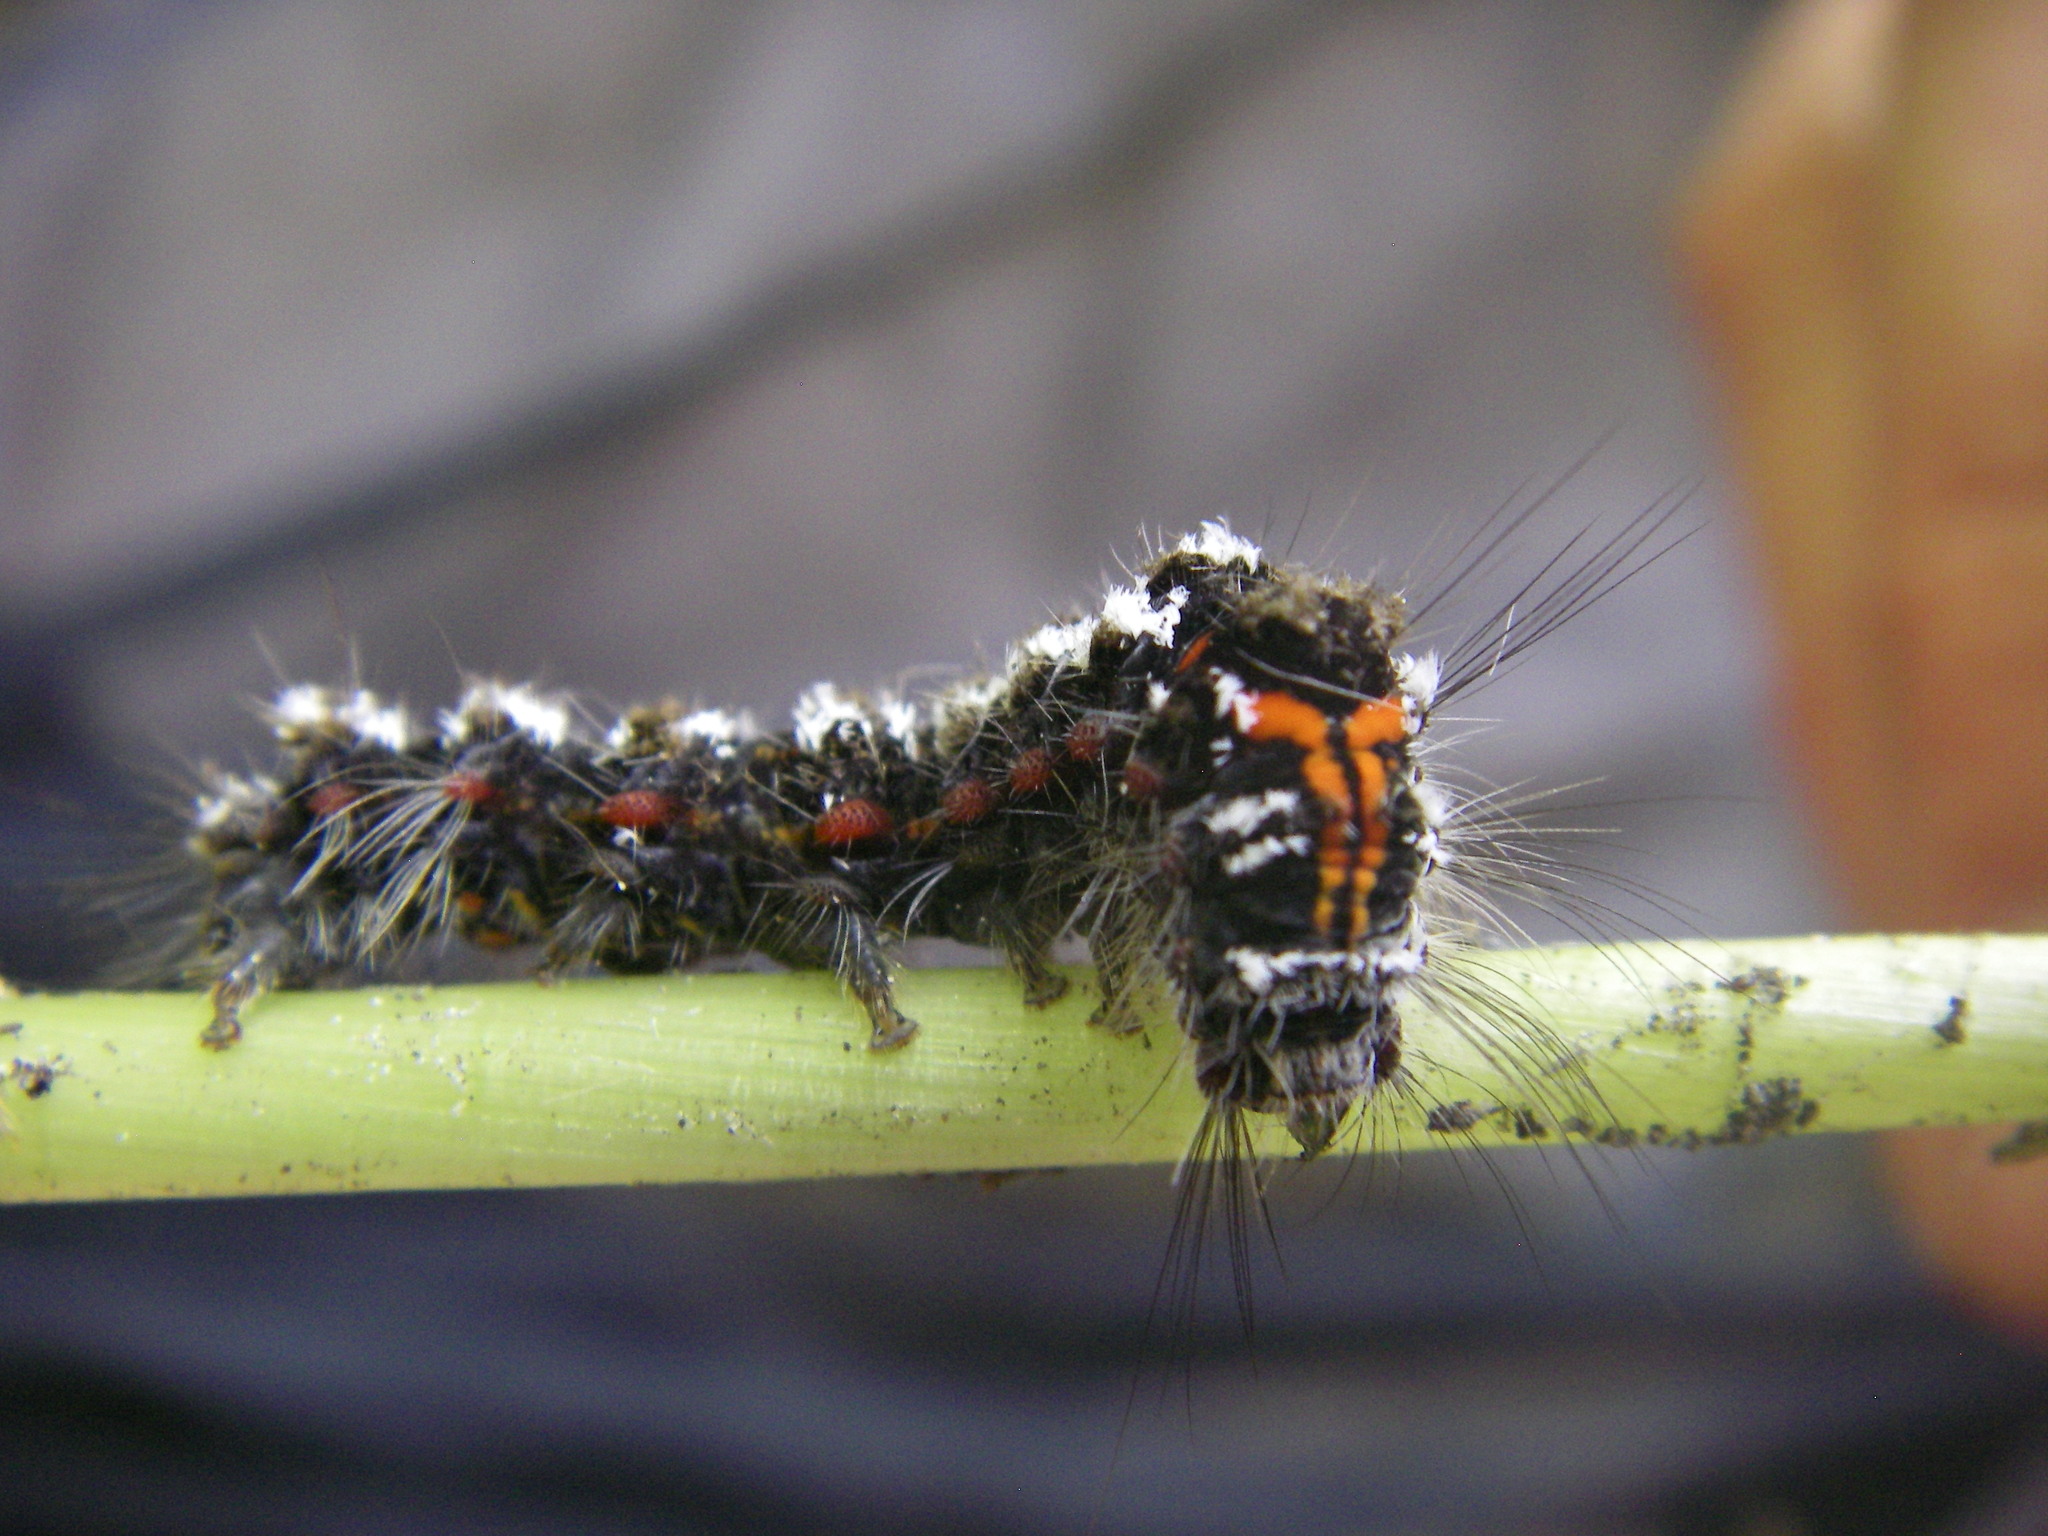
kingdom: Animalia
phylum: Arthropoda
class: Insecta
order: Lepidoptera
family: Erebidae
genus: Sphrageidus
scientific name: Sphrageidus similis
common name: Yellow-tail
